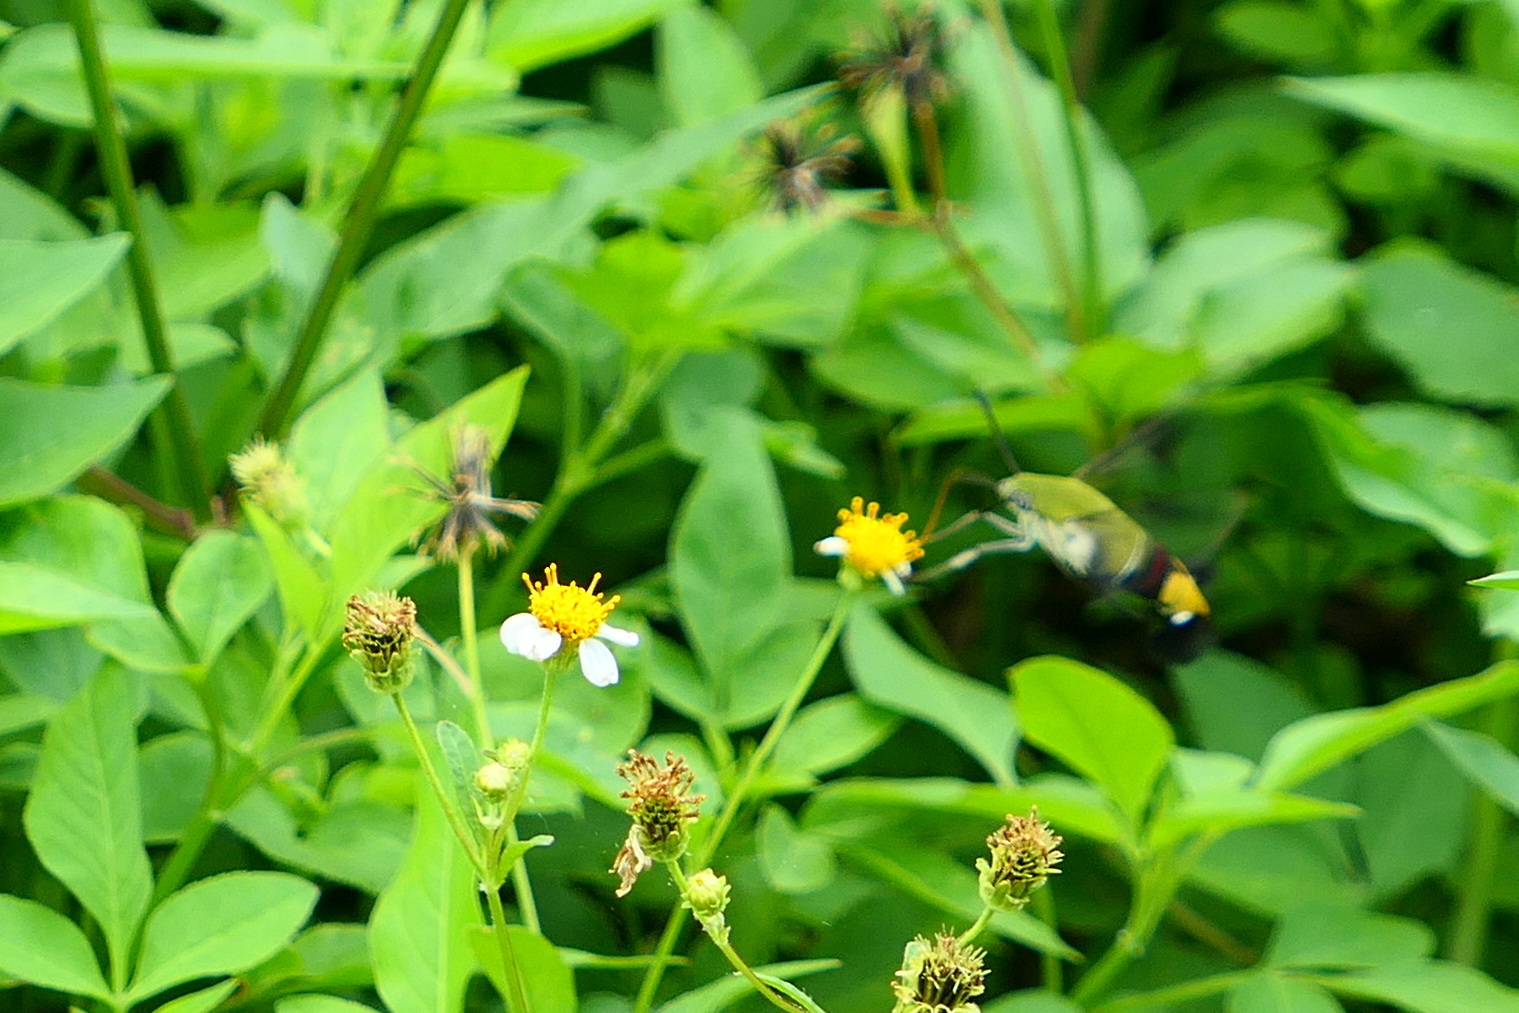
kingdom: Animalia
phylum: Arthropoda
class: Insecta
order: Lepidoptera
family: Sphingidae
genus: Cephonodes
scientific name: Cephonodes hylas
